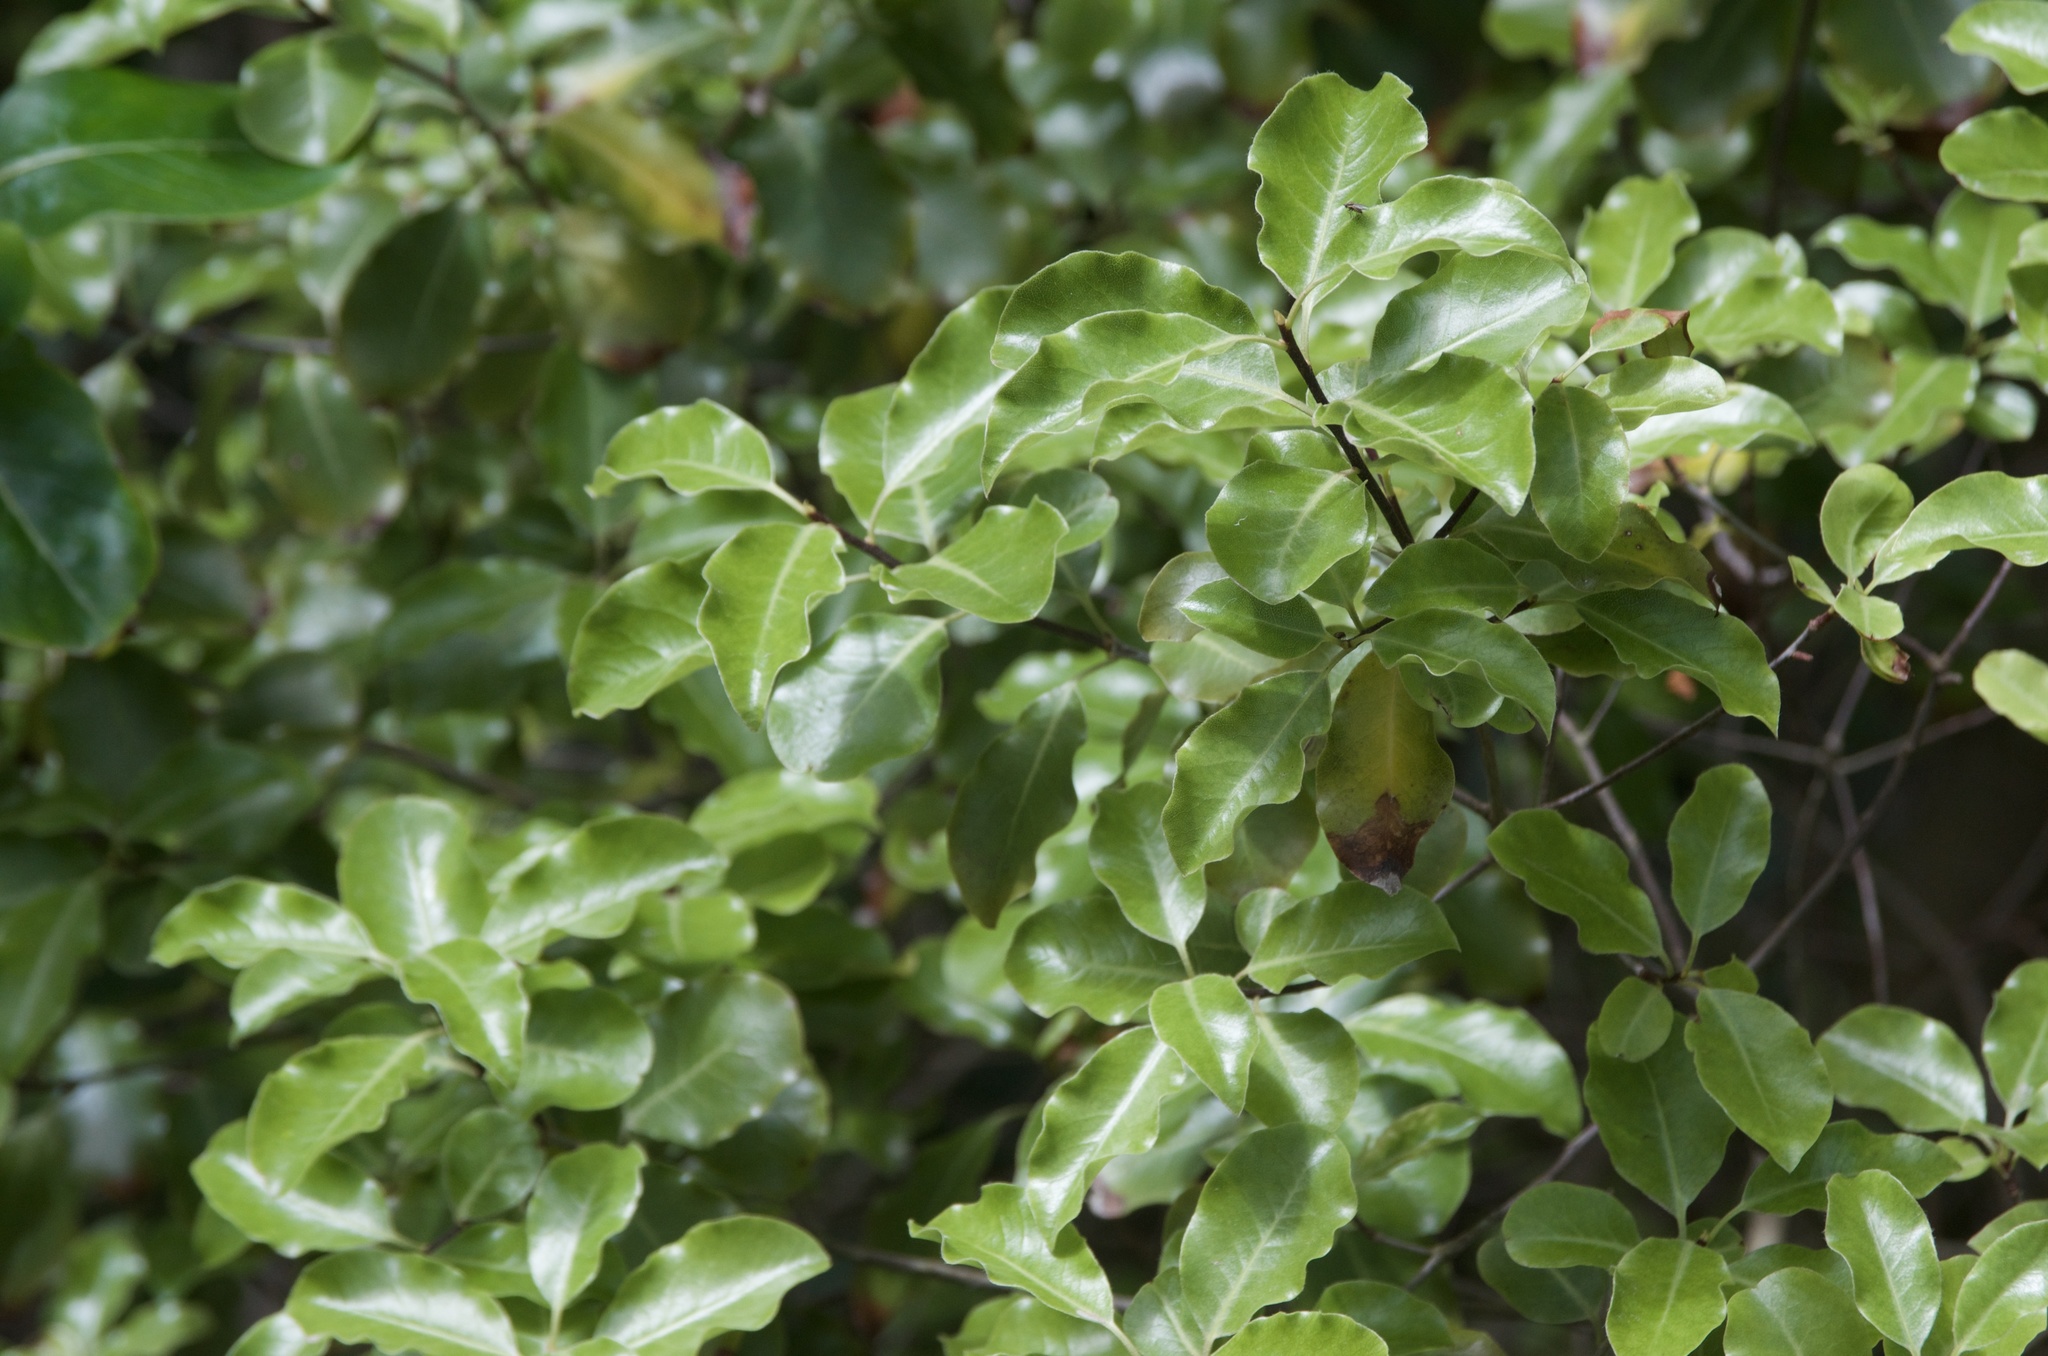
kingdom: Plantae
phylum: Tracheophyta
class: Magnoliopsida
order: Apiales
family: Pittosporaceae
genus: Pittosporum
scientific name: Pittosporum tenuifolium
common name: Kohuhu
